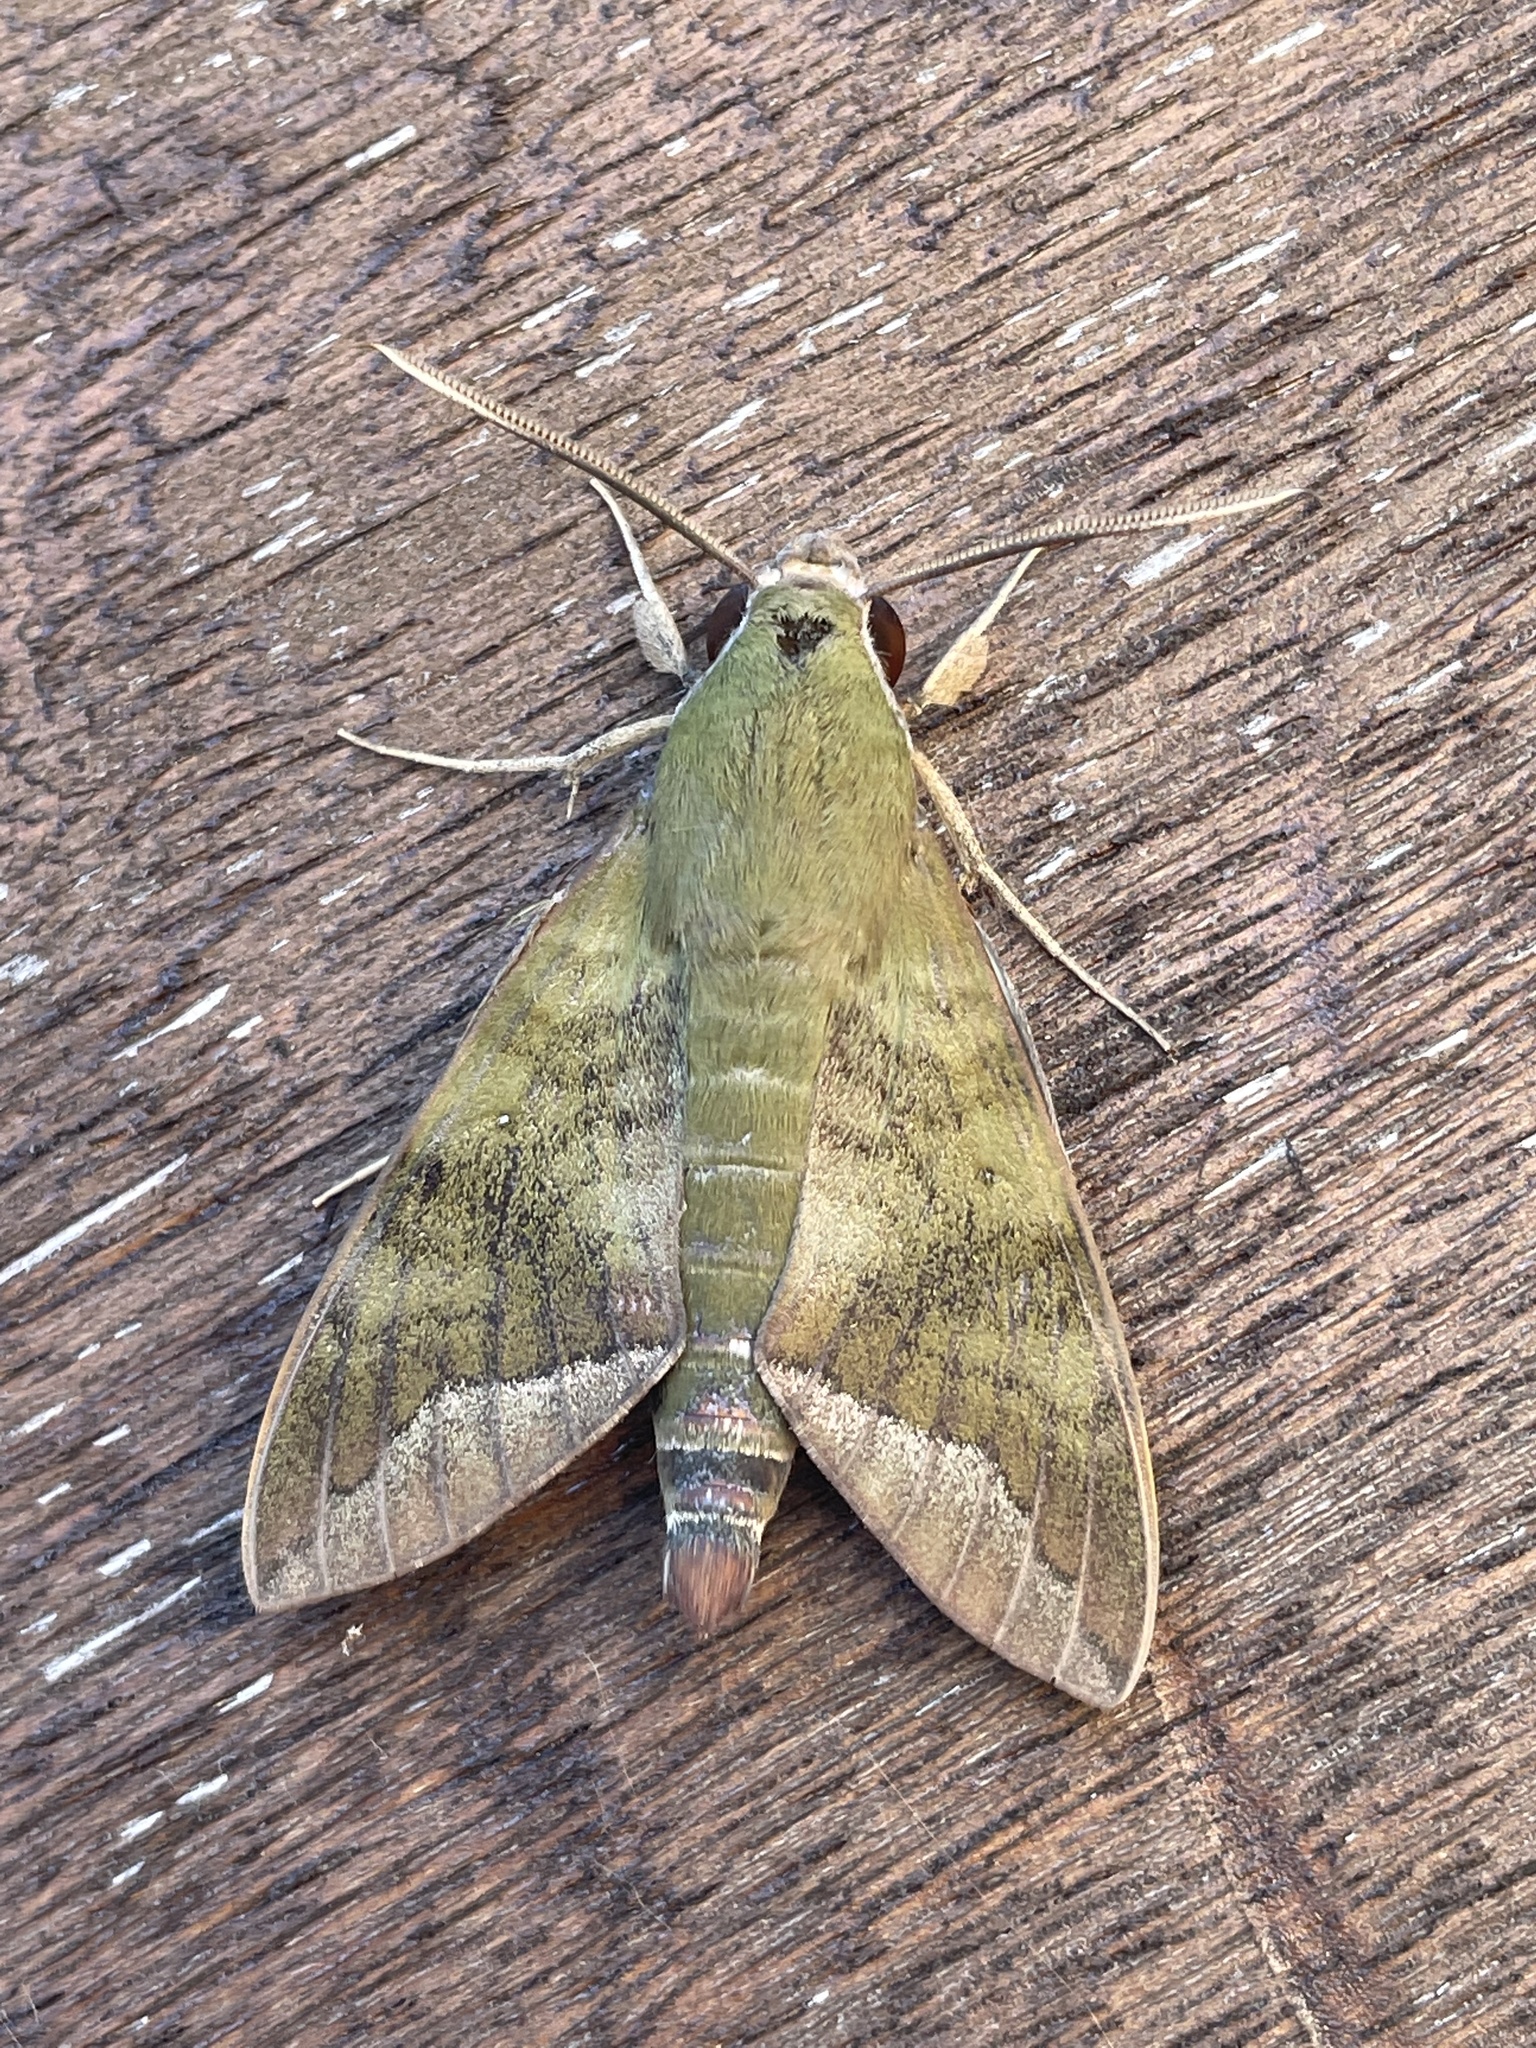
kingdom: Animalia
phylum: Arthropoda
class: Insecta
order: Lepidoptera
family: Sphingidae
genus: Nephele
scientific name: Nephele comma
